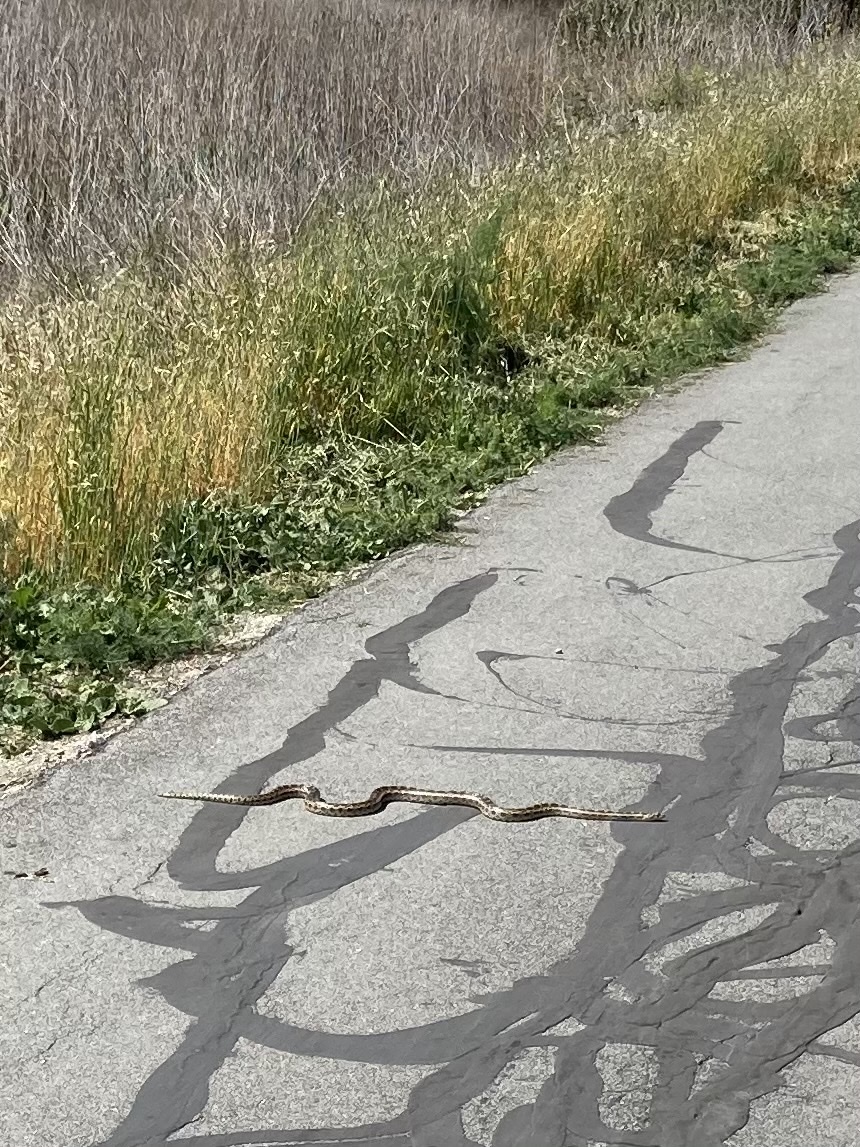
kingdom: Animalia
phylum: Chordata
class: Squamata
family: Colubridae
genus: Pituophis
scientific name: Pituophis catenifer
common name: Gopher snake
